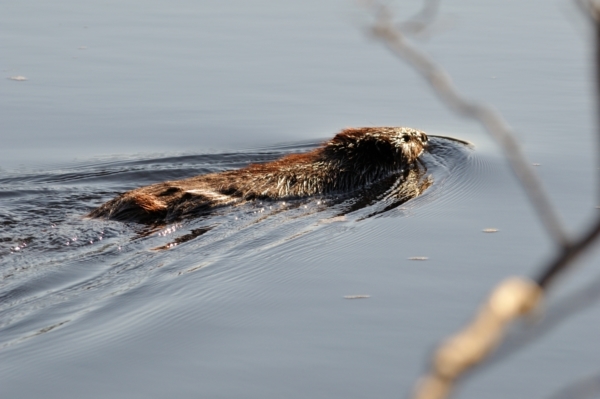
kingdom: Animalia
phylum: Chordata
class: Mammalia
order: Rodentia
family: Castoridae
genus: Castor
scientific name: Castor canadensis
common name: American beaver
